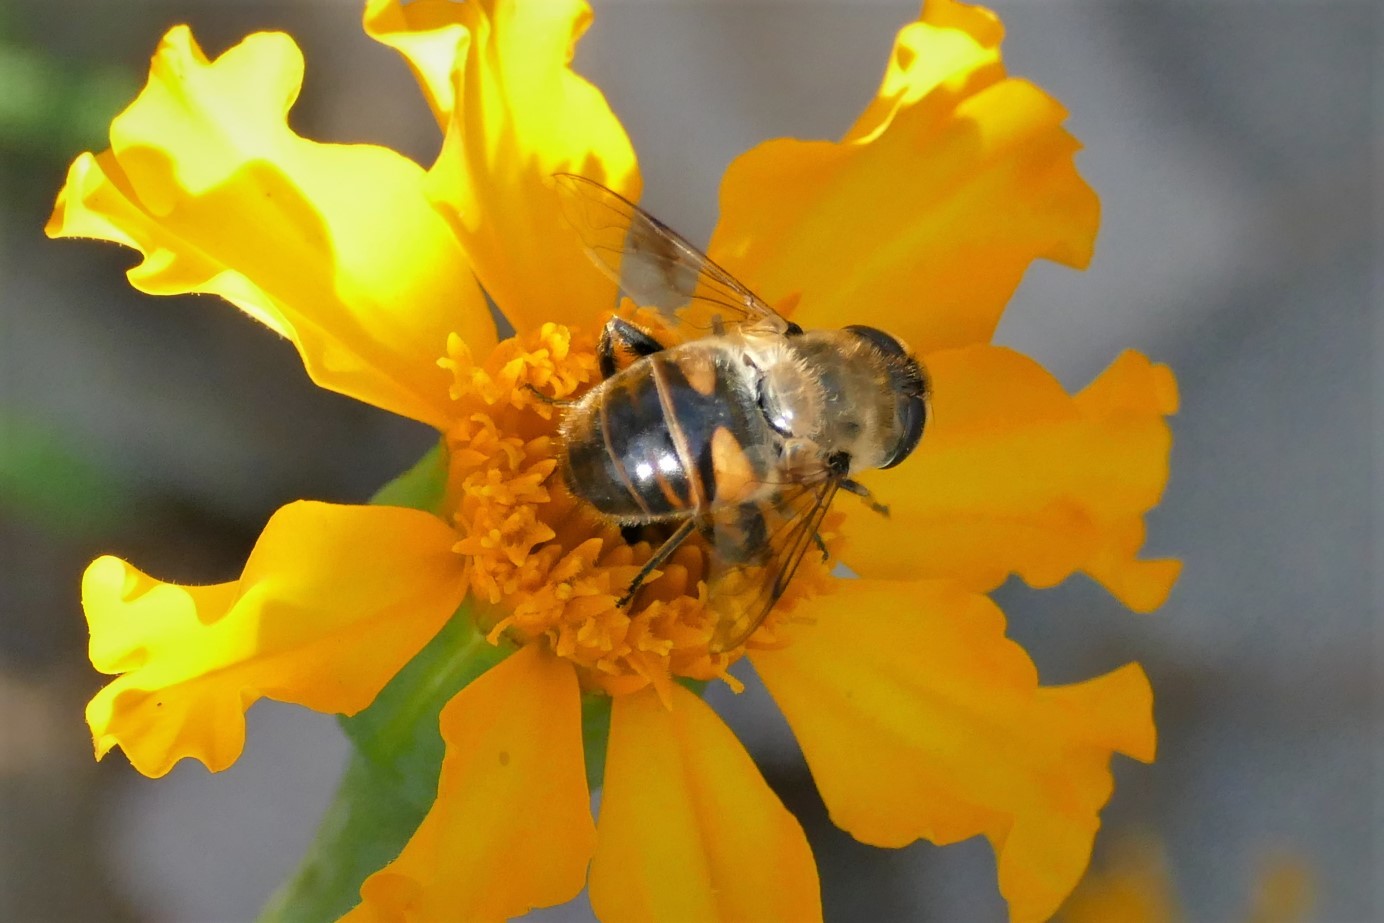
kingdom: Animalia
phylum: Arthropoda
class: Insecta
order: Diptera
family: Syrphidae
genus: Eristalis
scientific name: Eristalis tenax
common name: Drone fly
